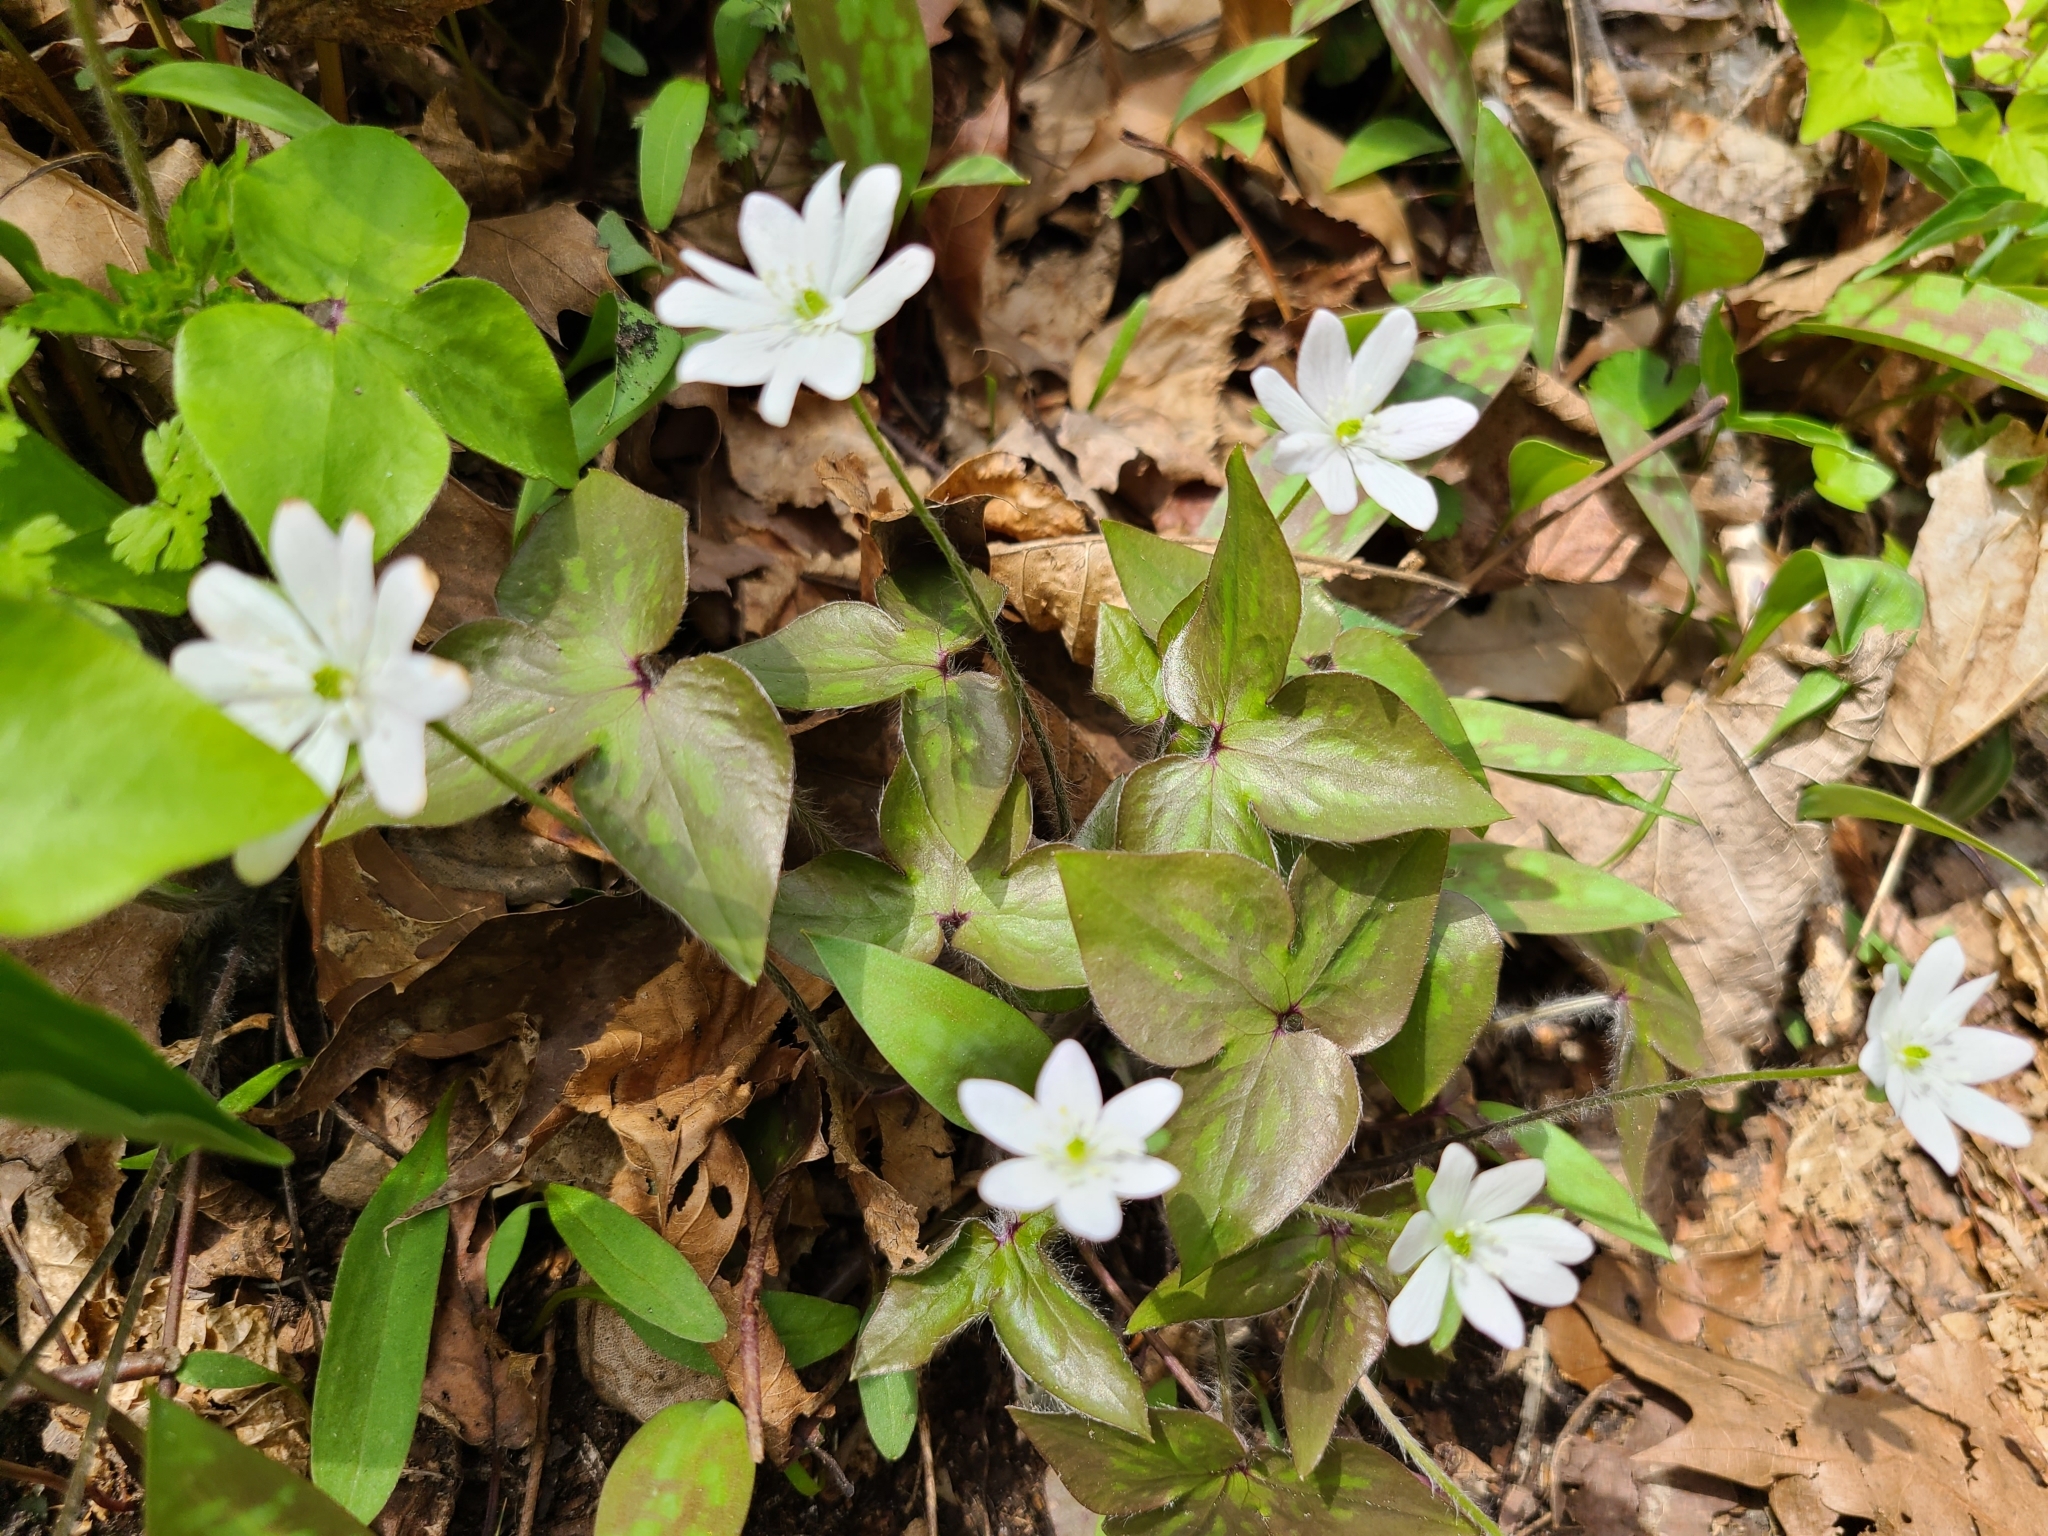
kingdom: Plantae
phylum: Tracheophyta
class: Magnoliopsida
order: Ranunculales
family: Ranunculaceae
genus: Hepatica
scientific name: Hepatica acutiloba
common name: Sharp-lobed hepatica
